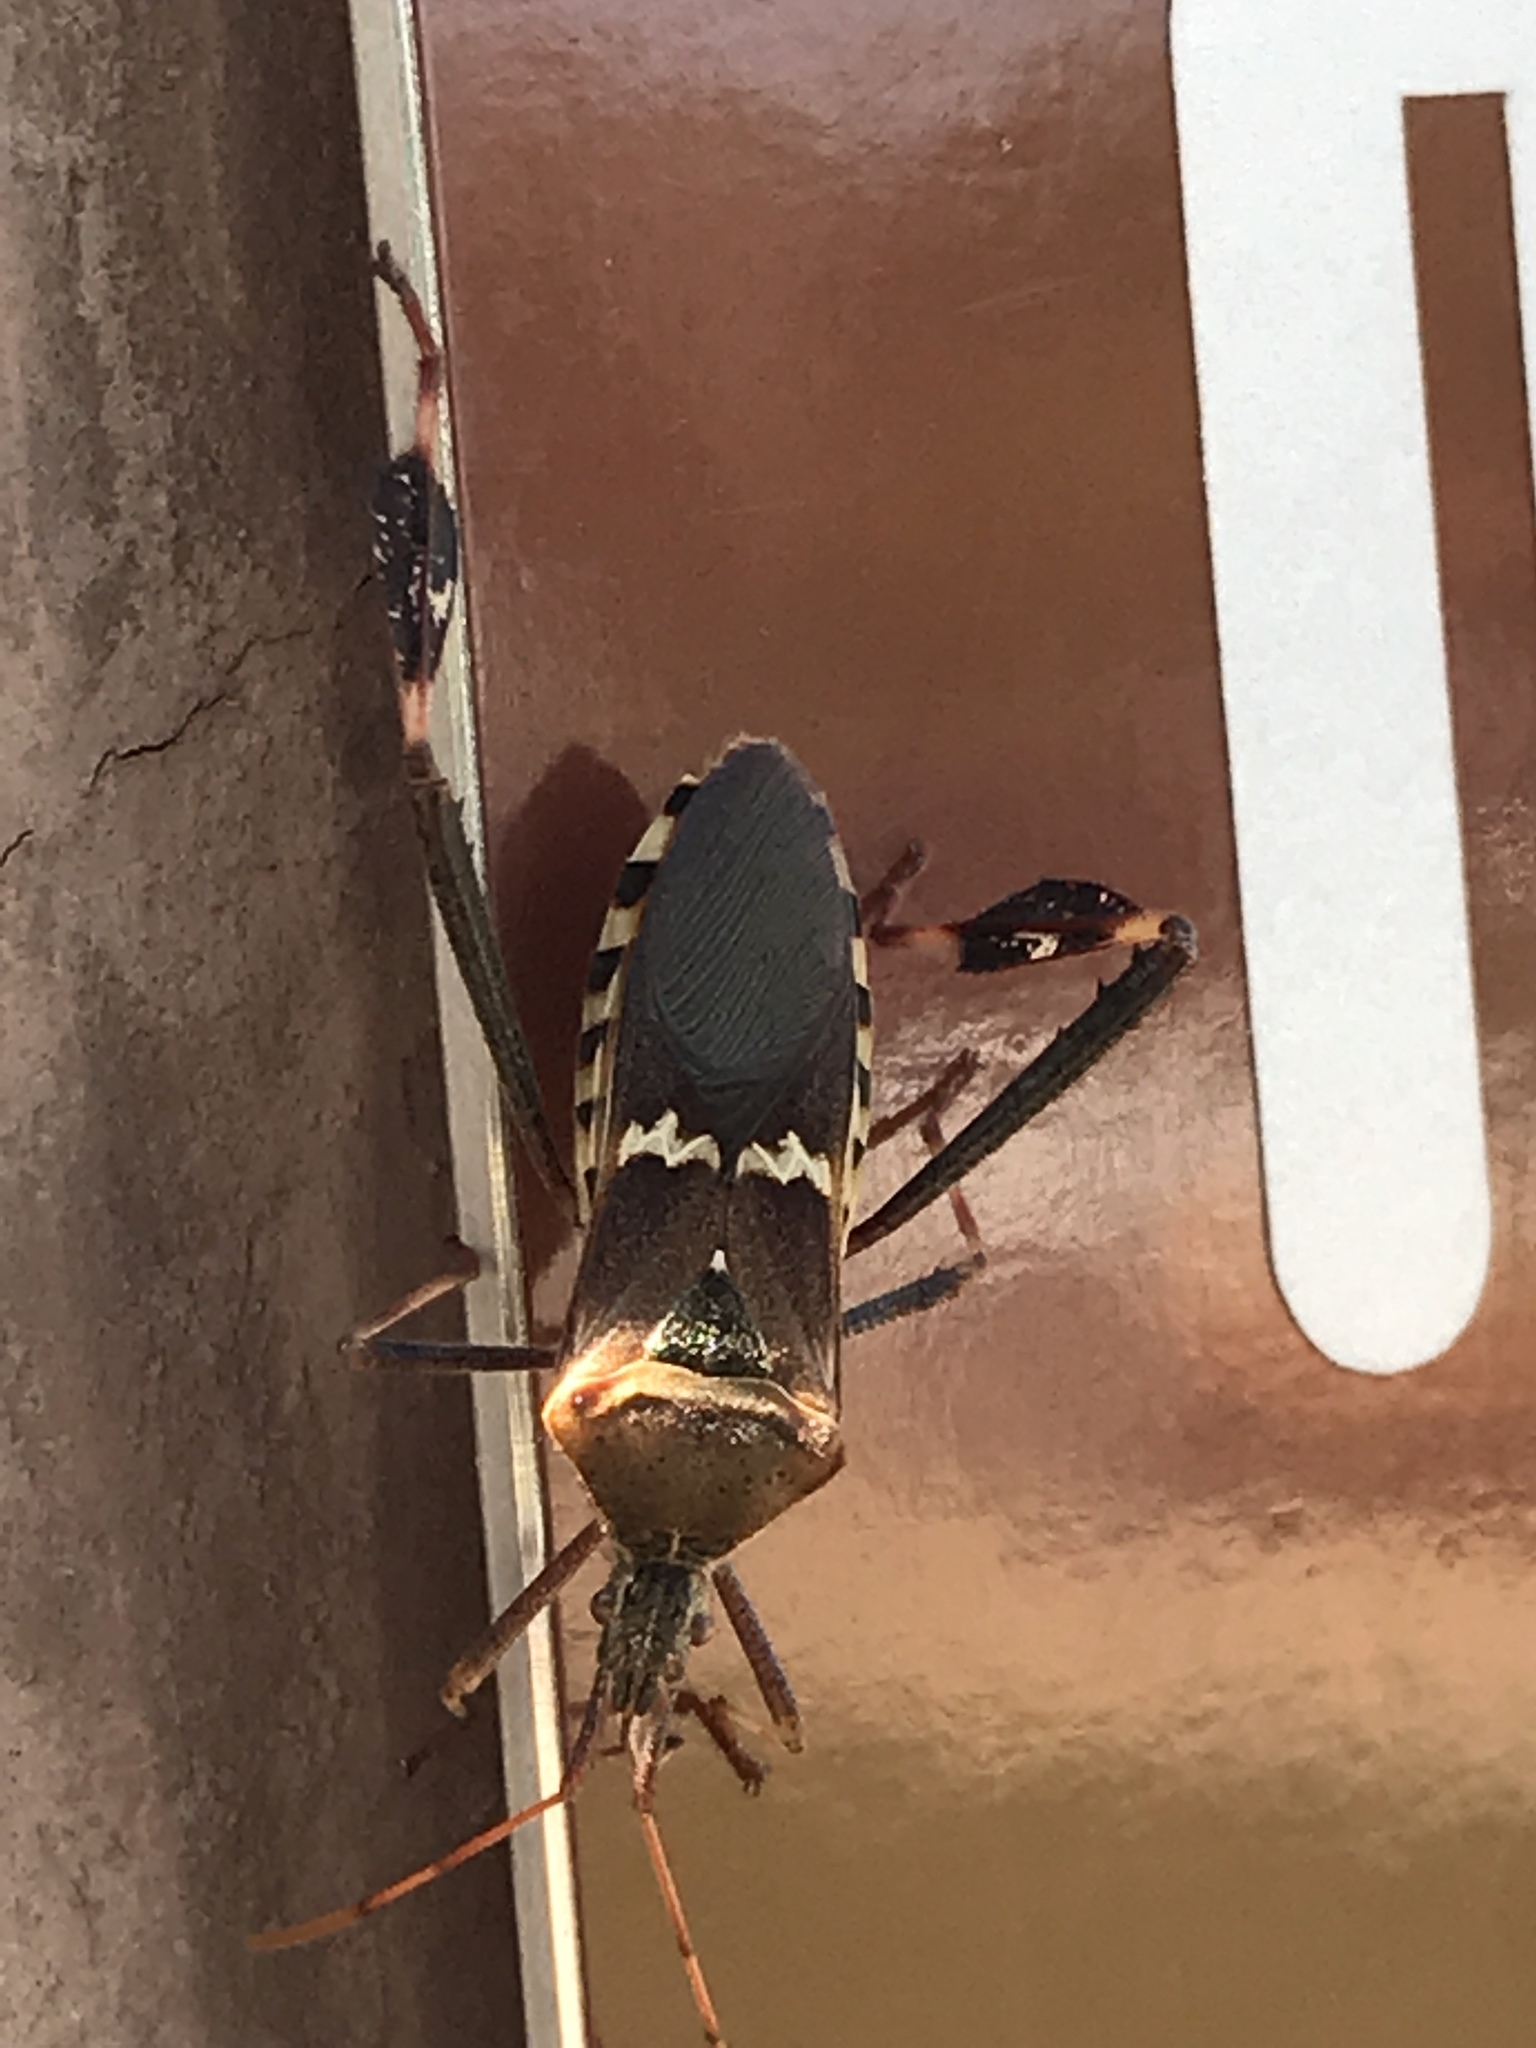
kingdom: Animalia
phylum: Arthropoda
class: Insecta
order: Hemiptera
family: Coreidae
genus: Leptoglossus
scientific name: Leptoglossus clypealis
